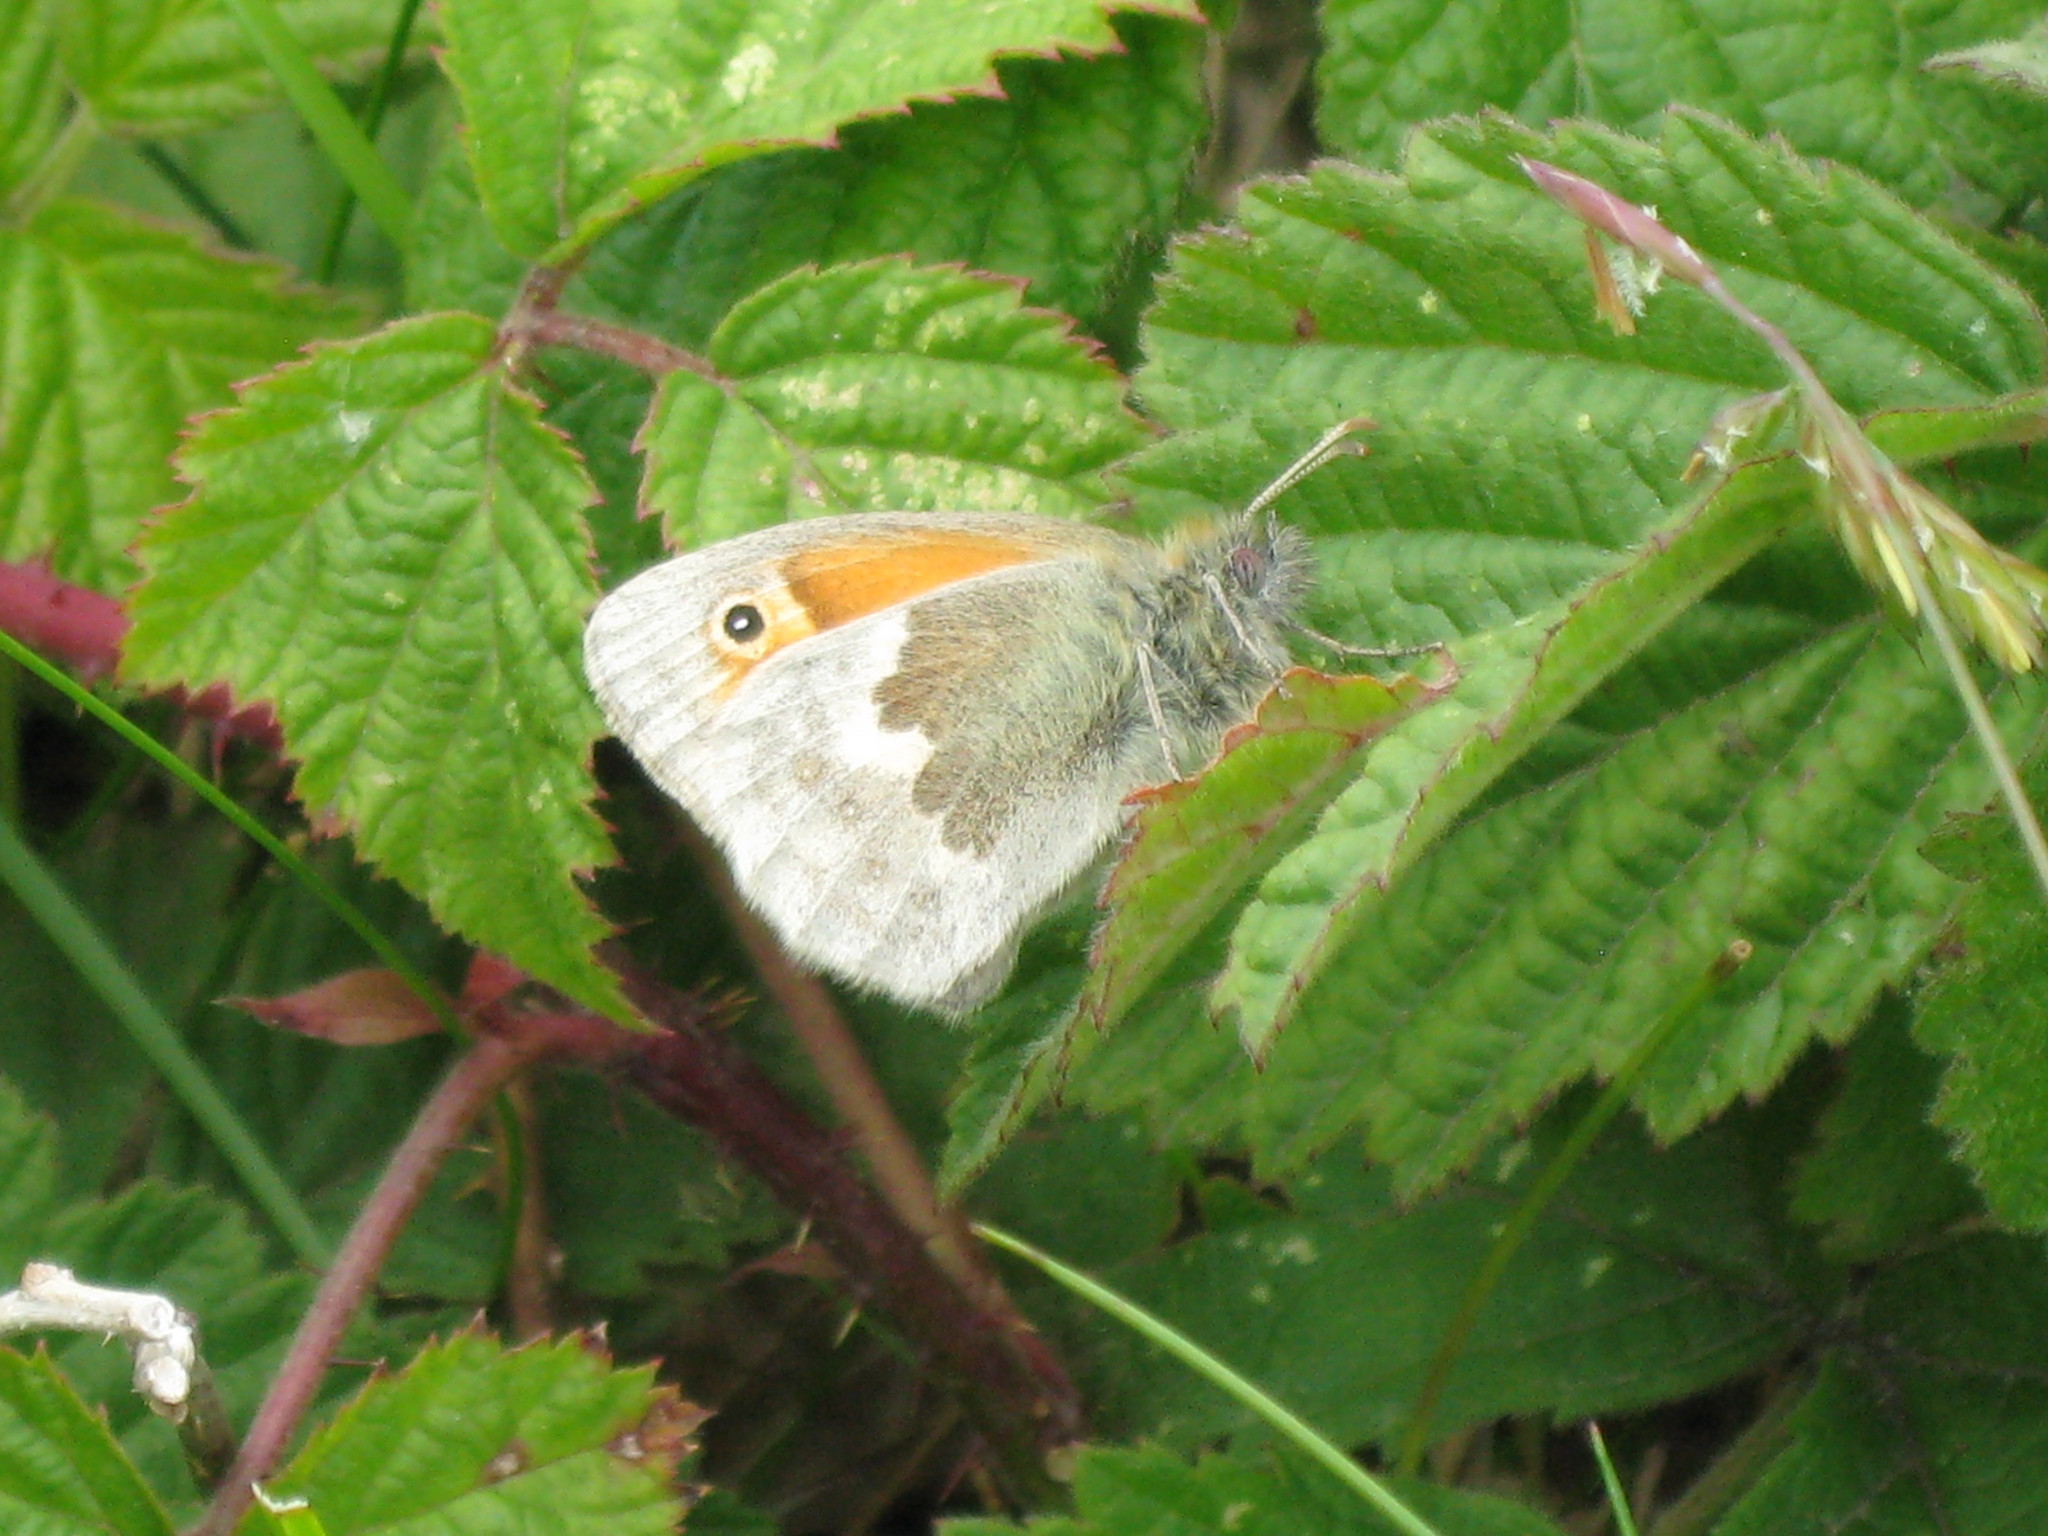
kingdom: Animalia
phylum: Arthropoda
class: Insecta
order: Lepidoptera
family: Nymphalidae
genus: Coenonympha
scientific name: Coenonympha pamphilus
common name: Small heath
